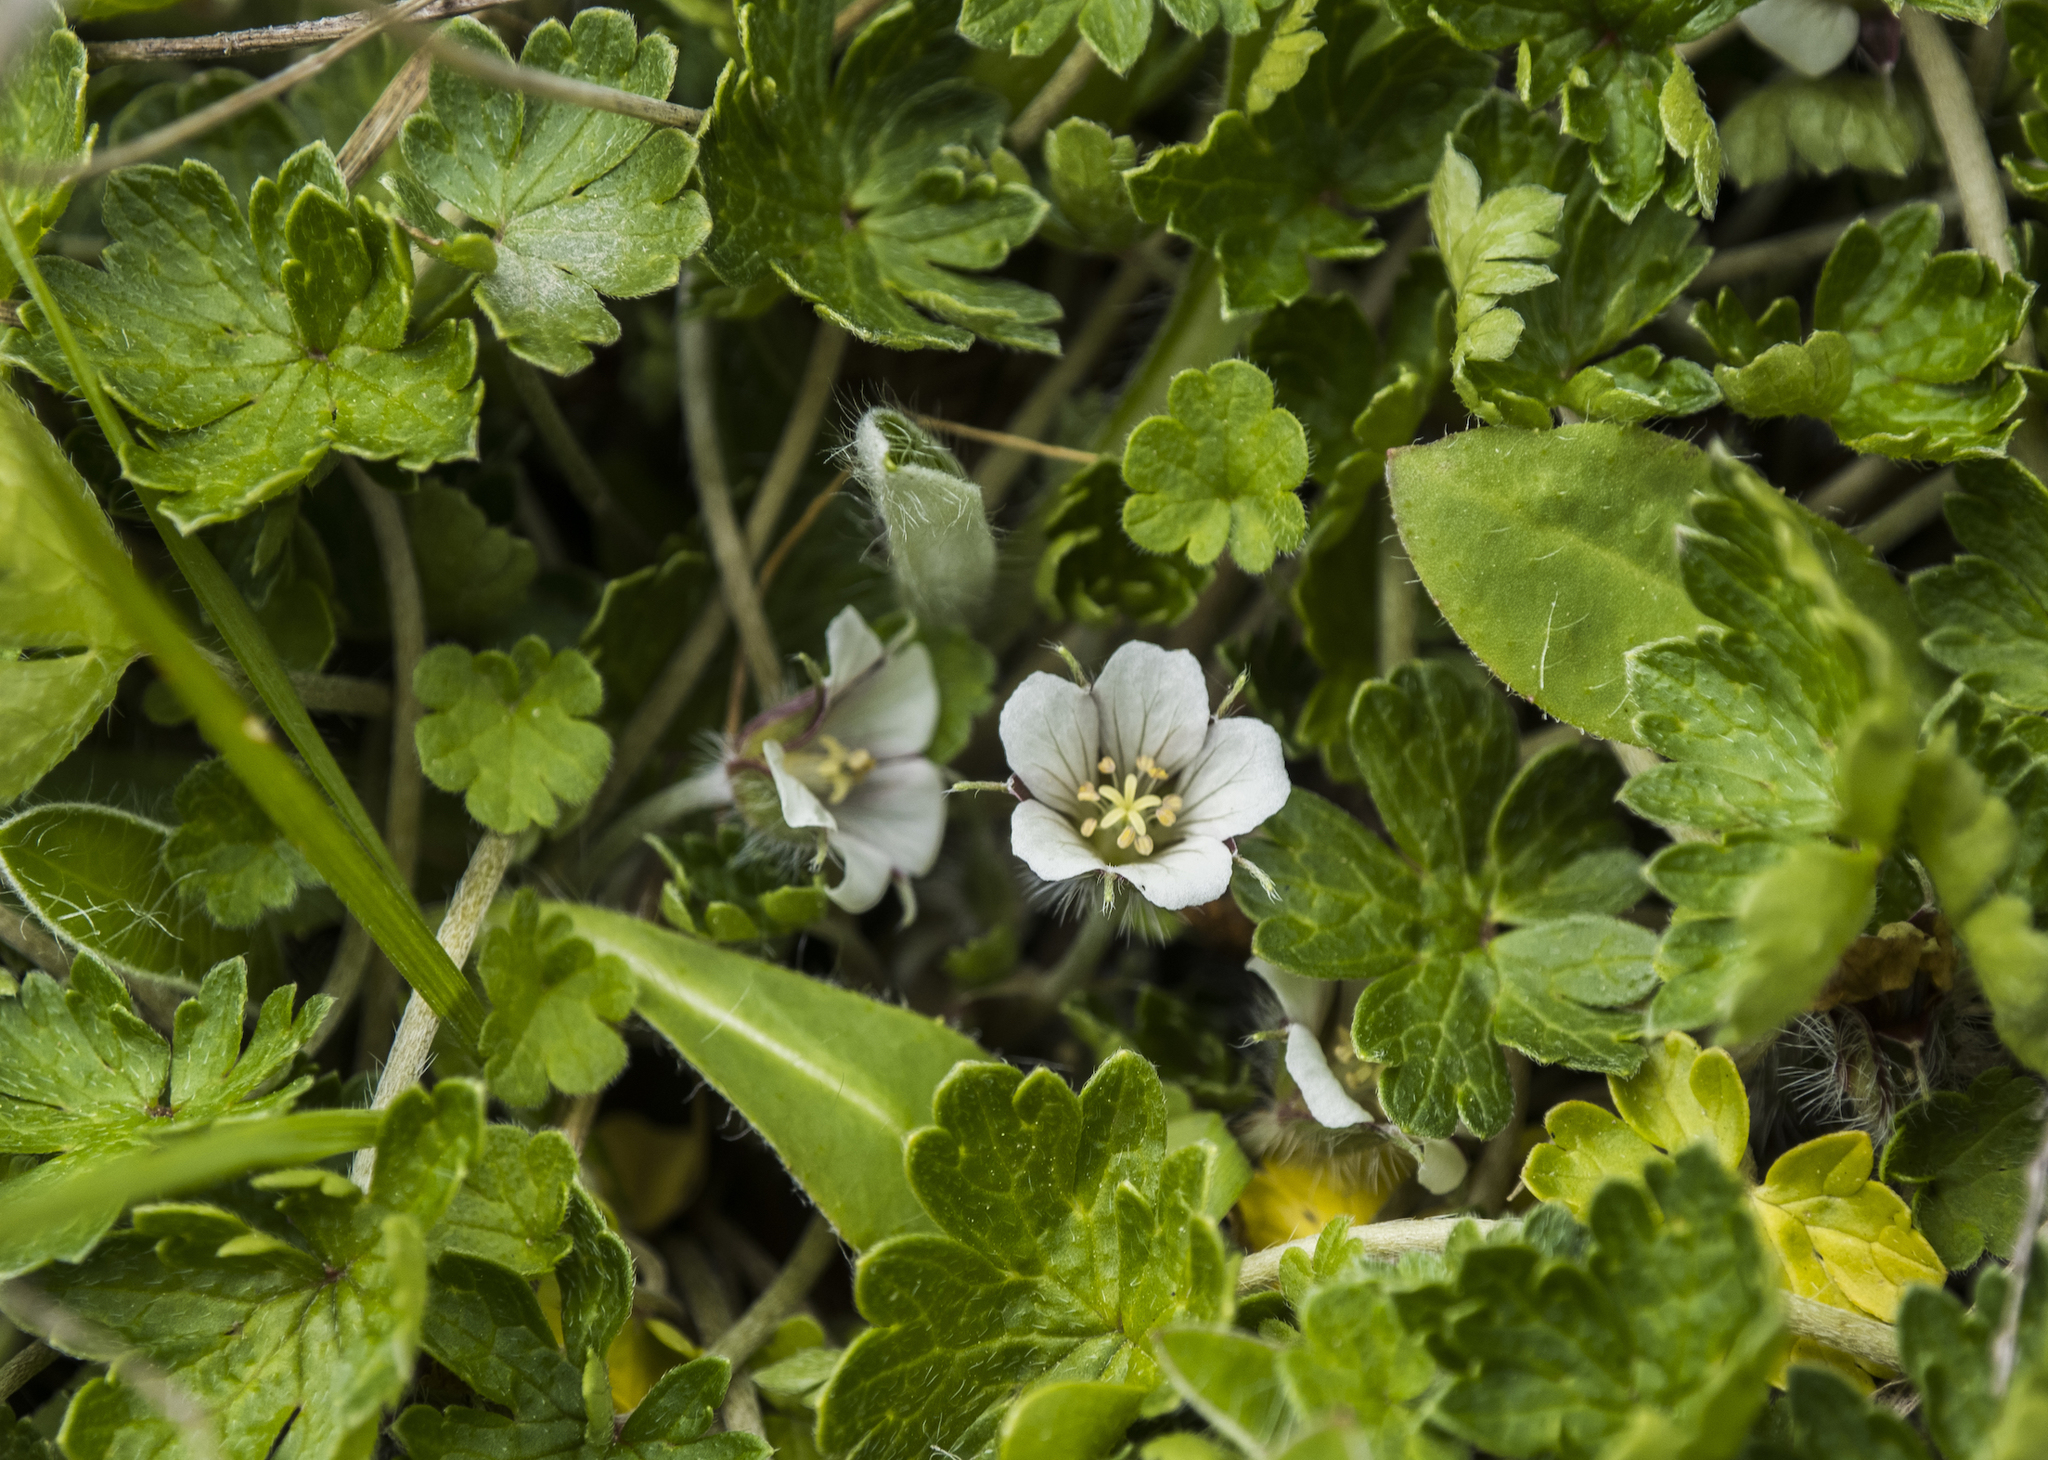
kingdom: Plantae
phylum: Tracheophyta
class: Magnoliopsida
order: Geraniales
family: Geraniaceae
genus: Geranium
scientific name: Geranium brevicaule
